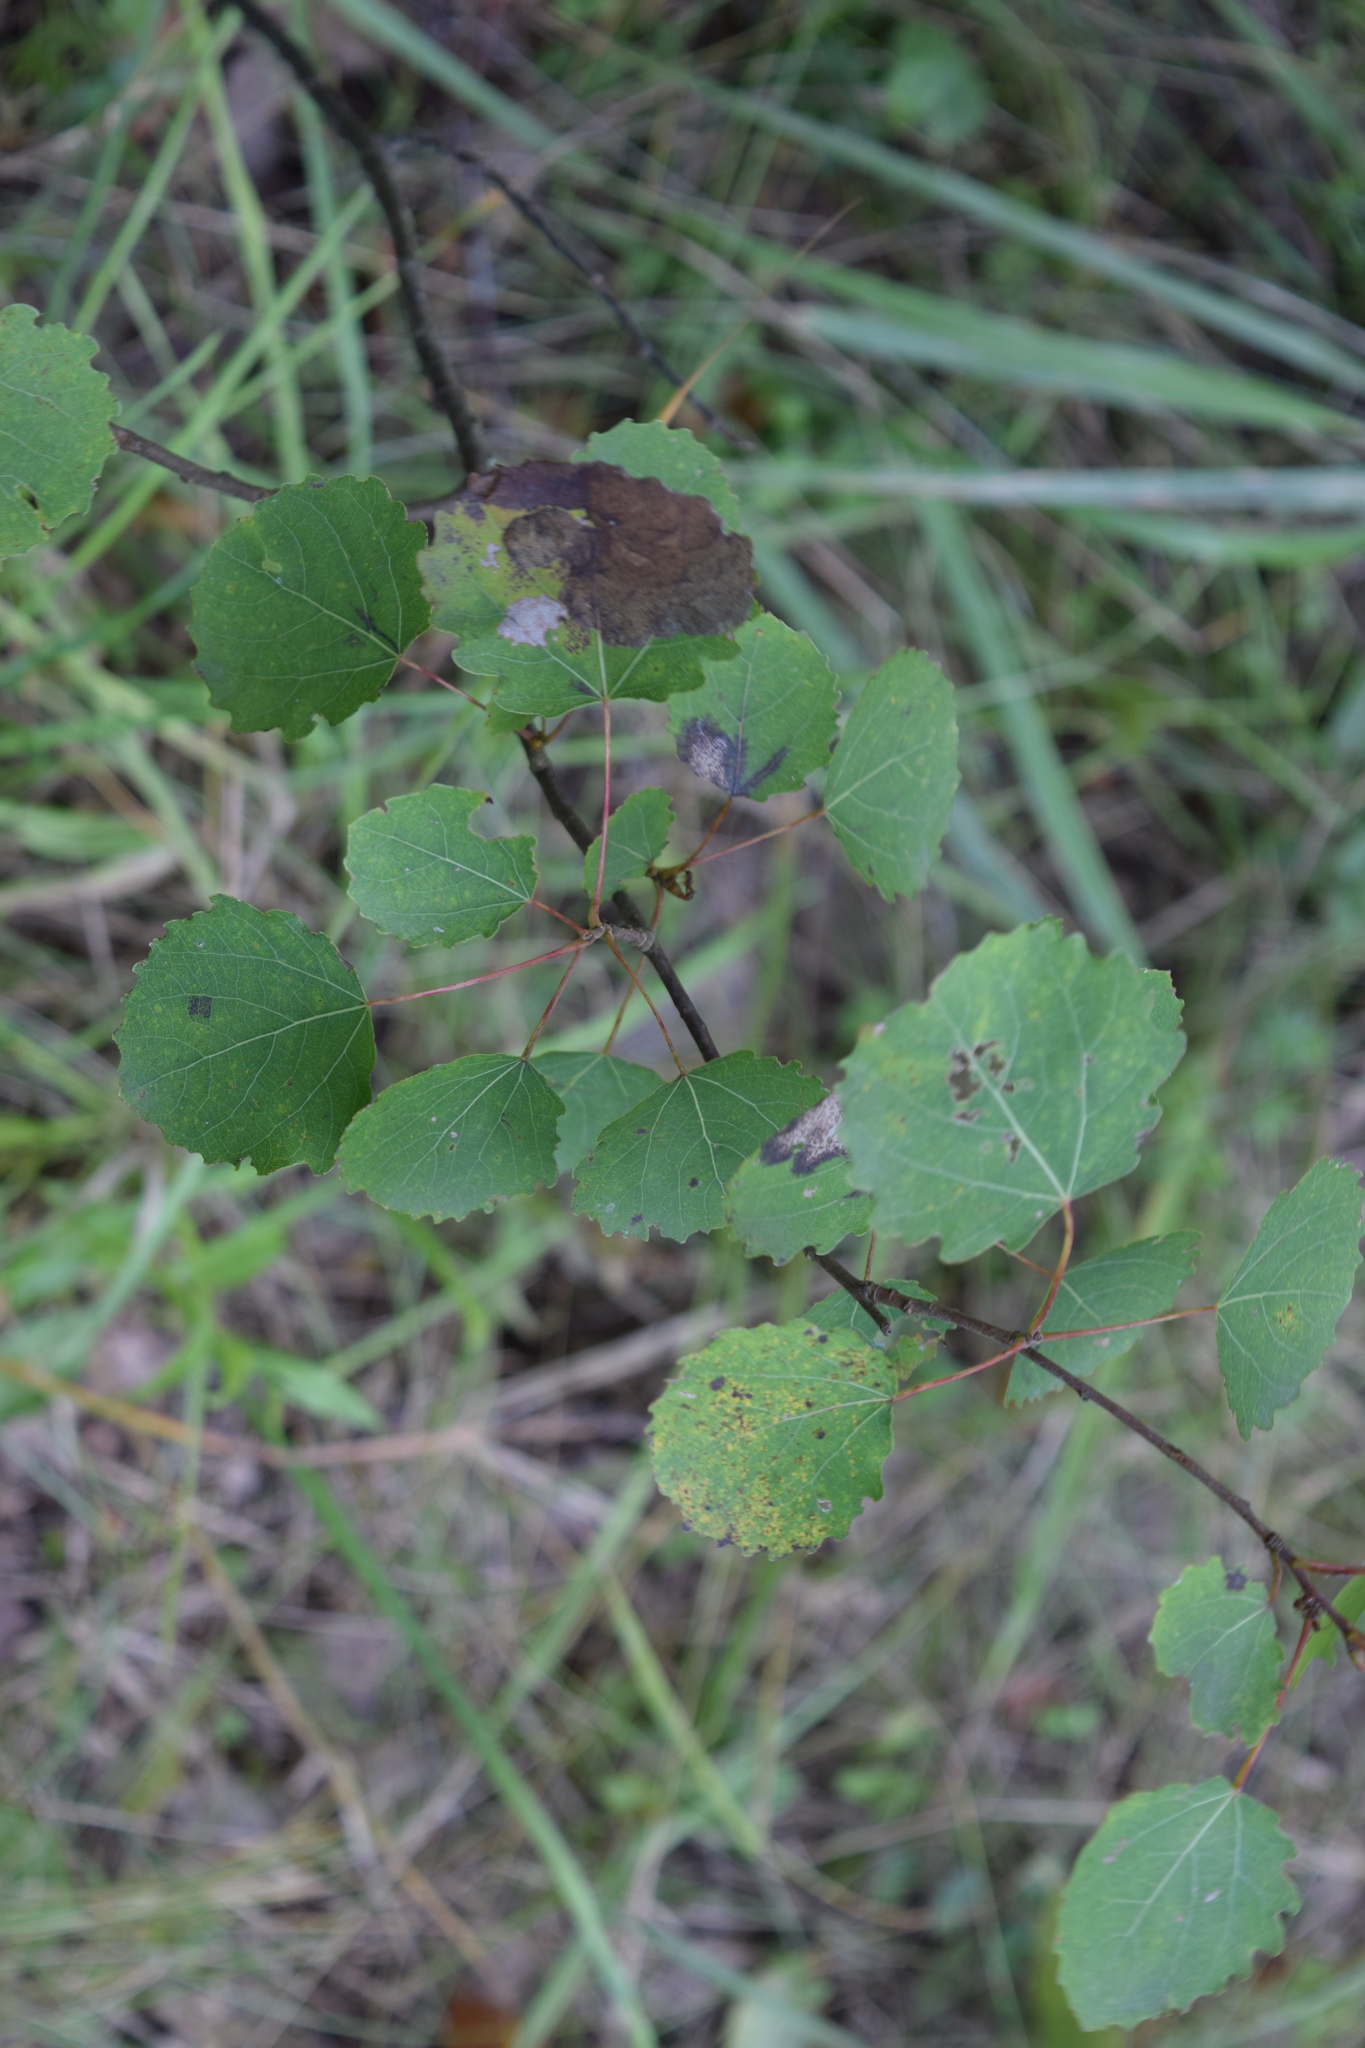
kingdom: Plantae
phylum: Tracheophyta
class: Magnoliopsida
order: Malpighiales
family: Salicaceae
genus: Populus
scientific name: Populus tremula
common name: European aspen
